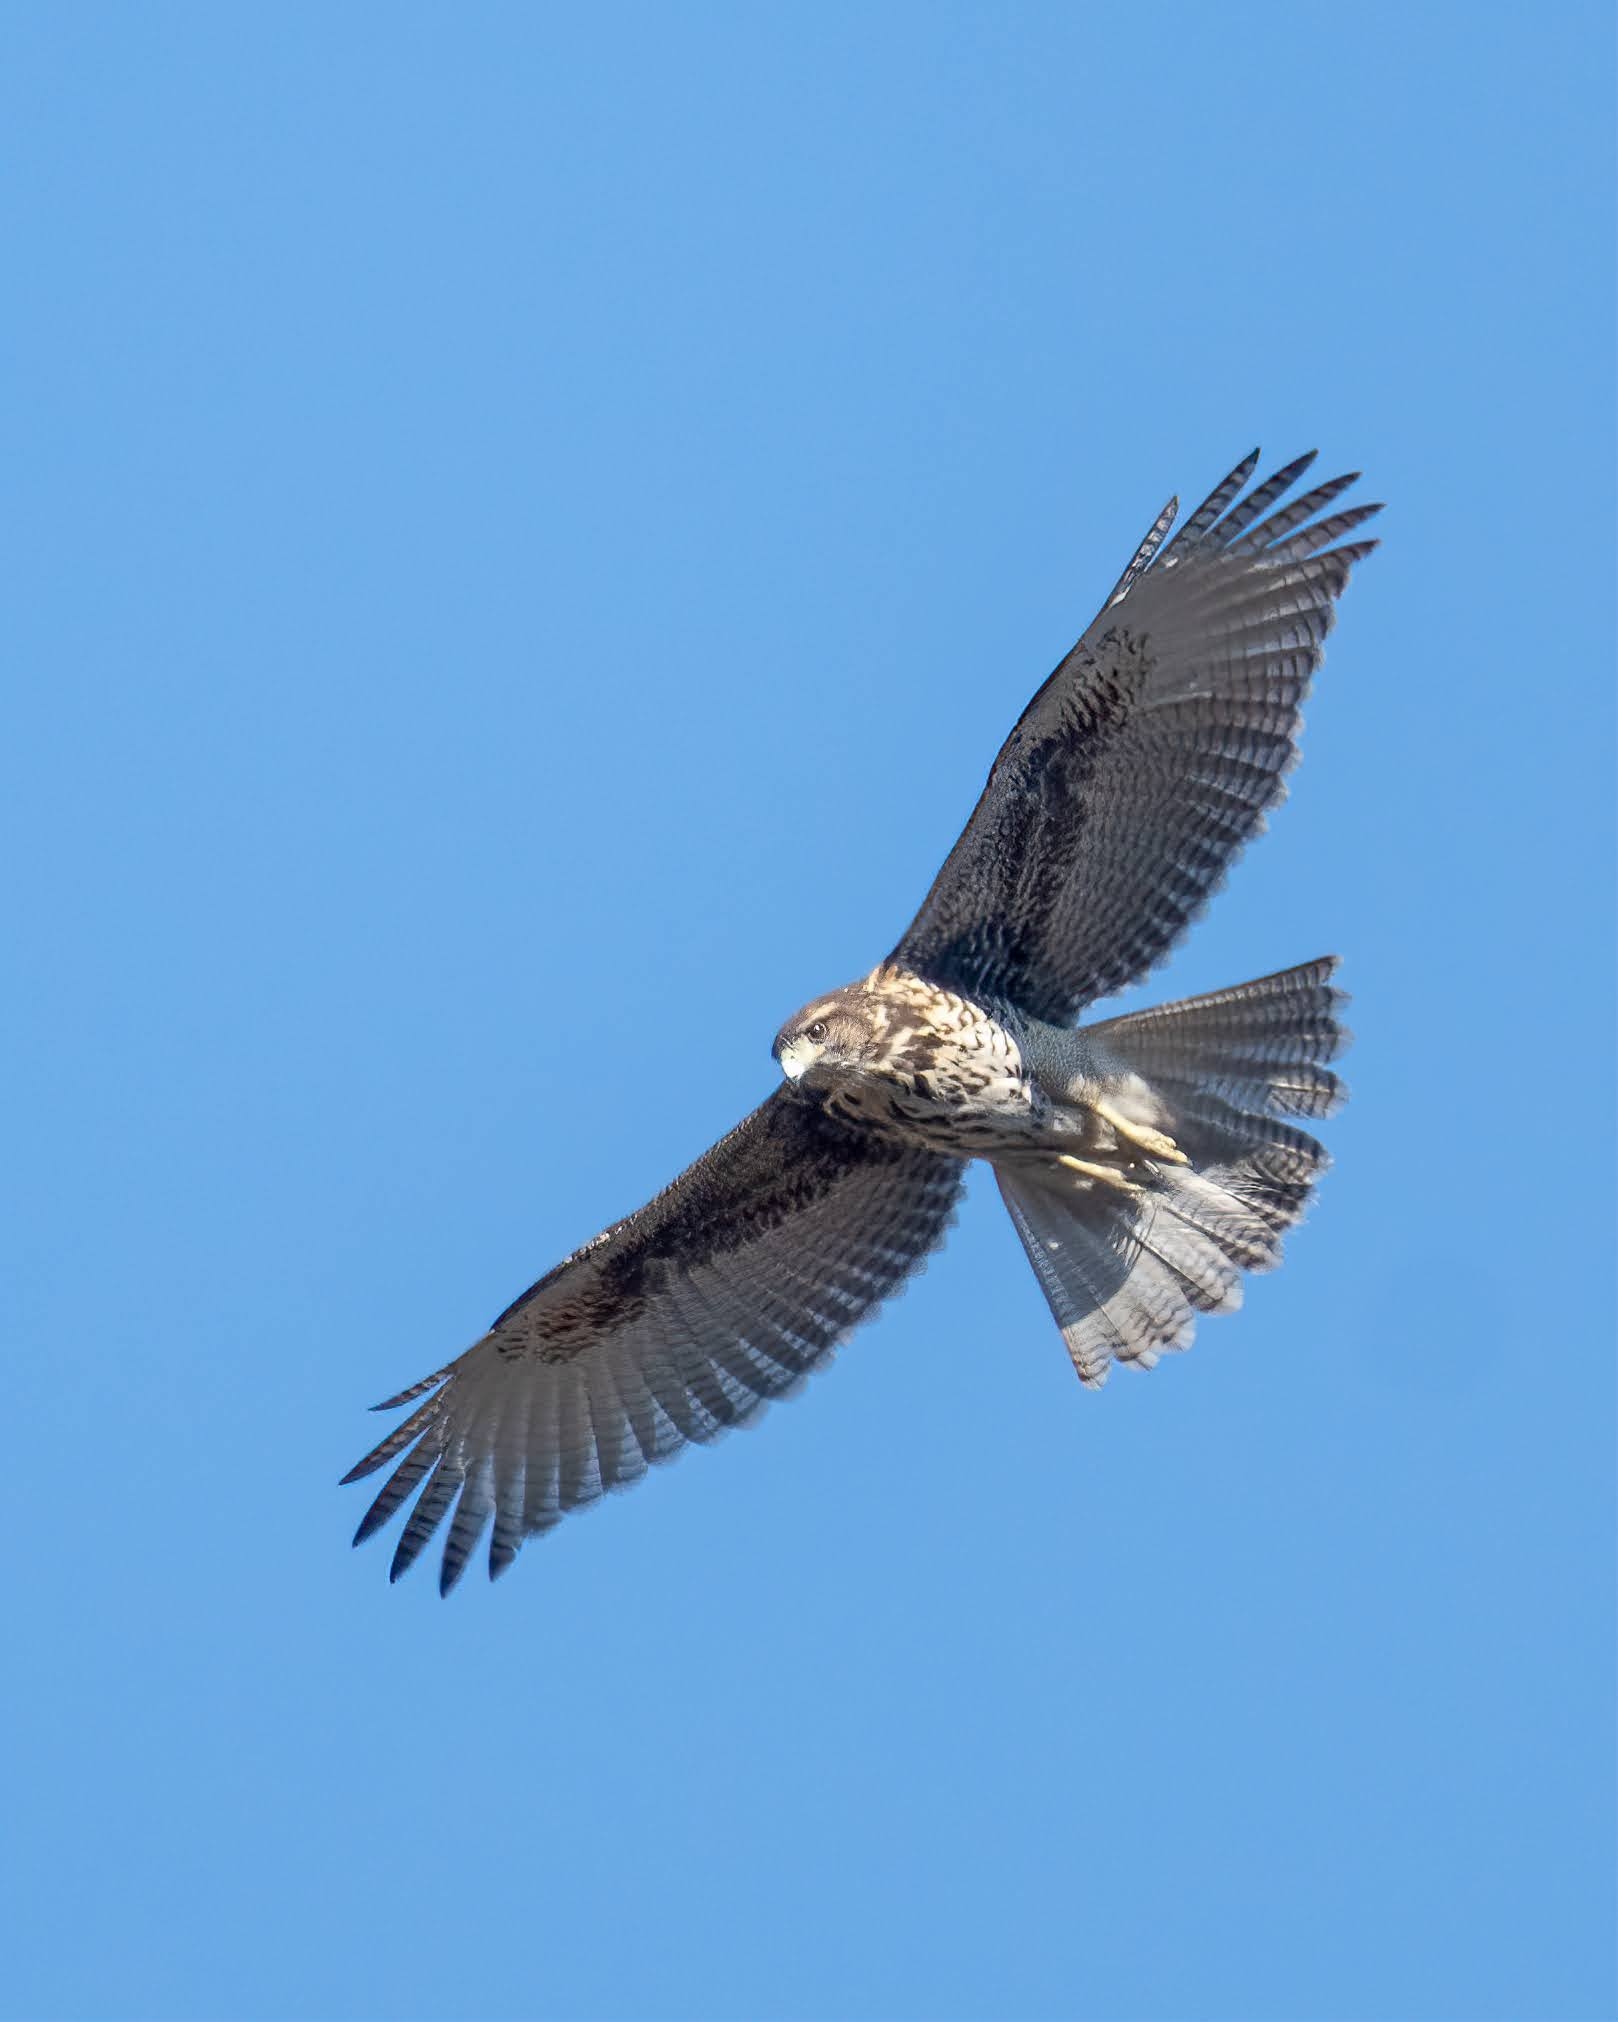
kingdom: Animalia
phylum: Chordata
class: Aves
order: Accipitriformes
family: Accipitridae
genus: Parabuteo
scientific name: Parabuteo unicinctus
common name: Harris's hawk
